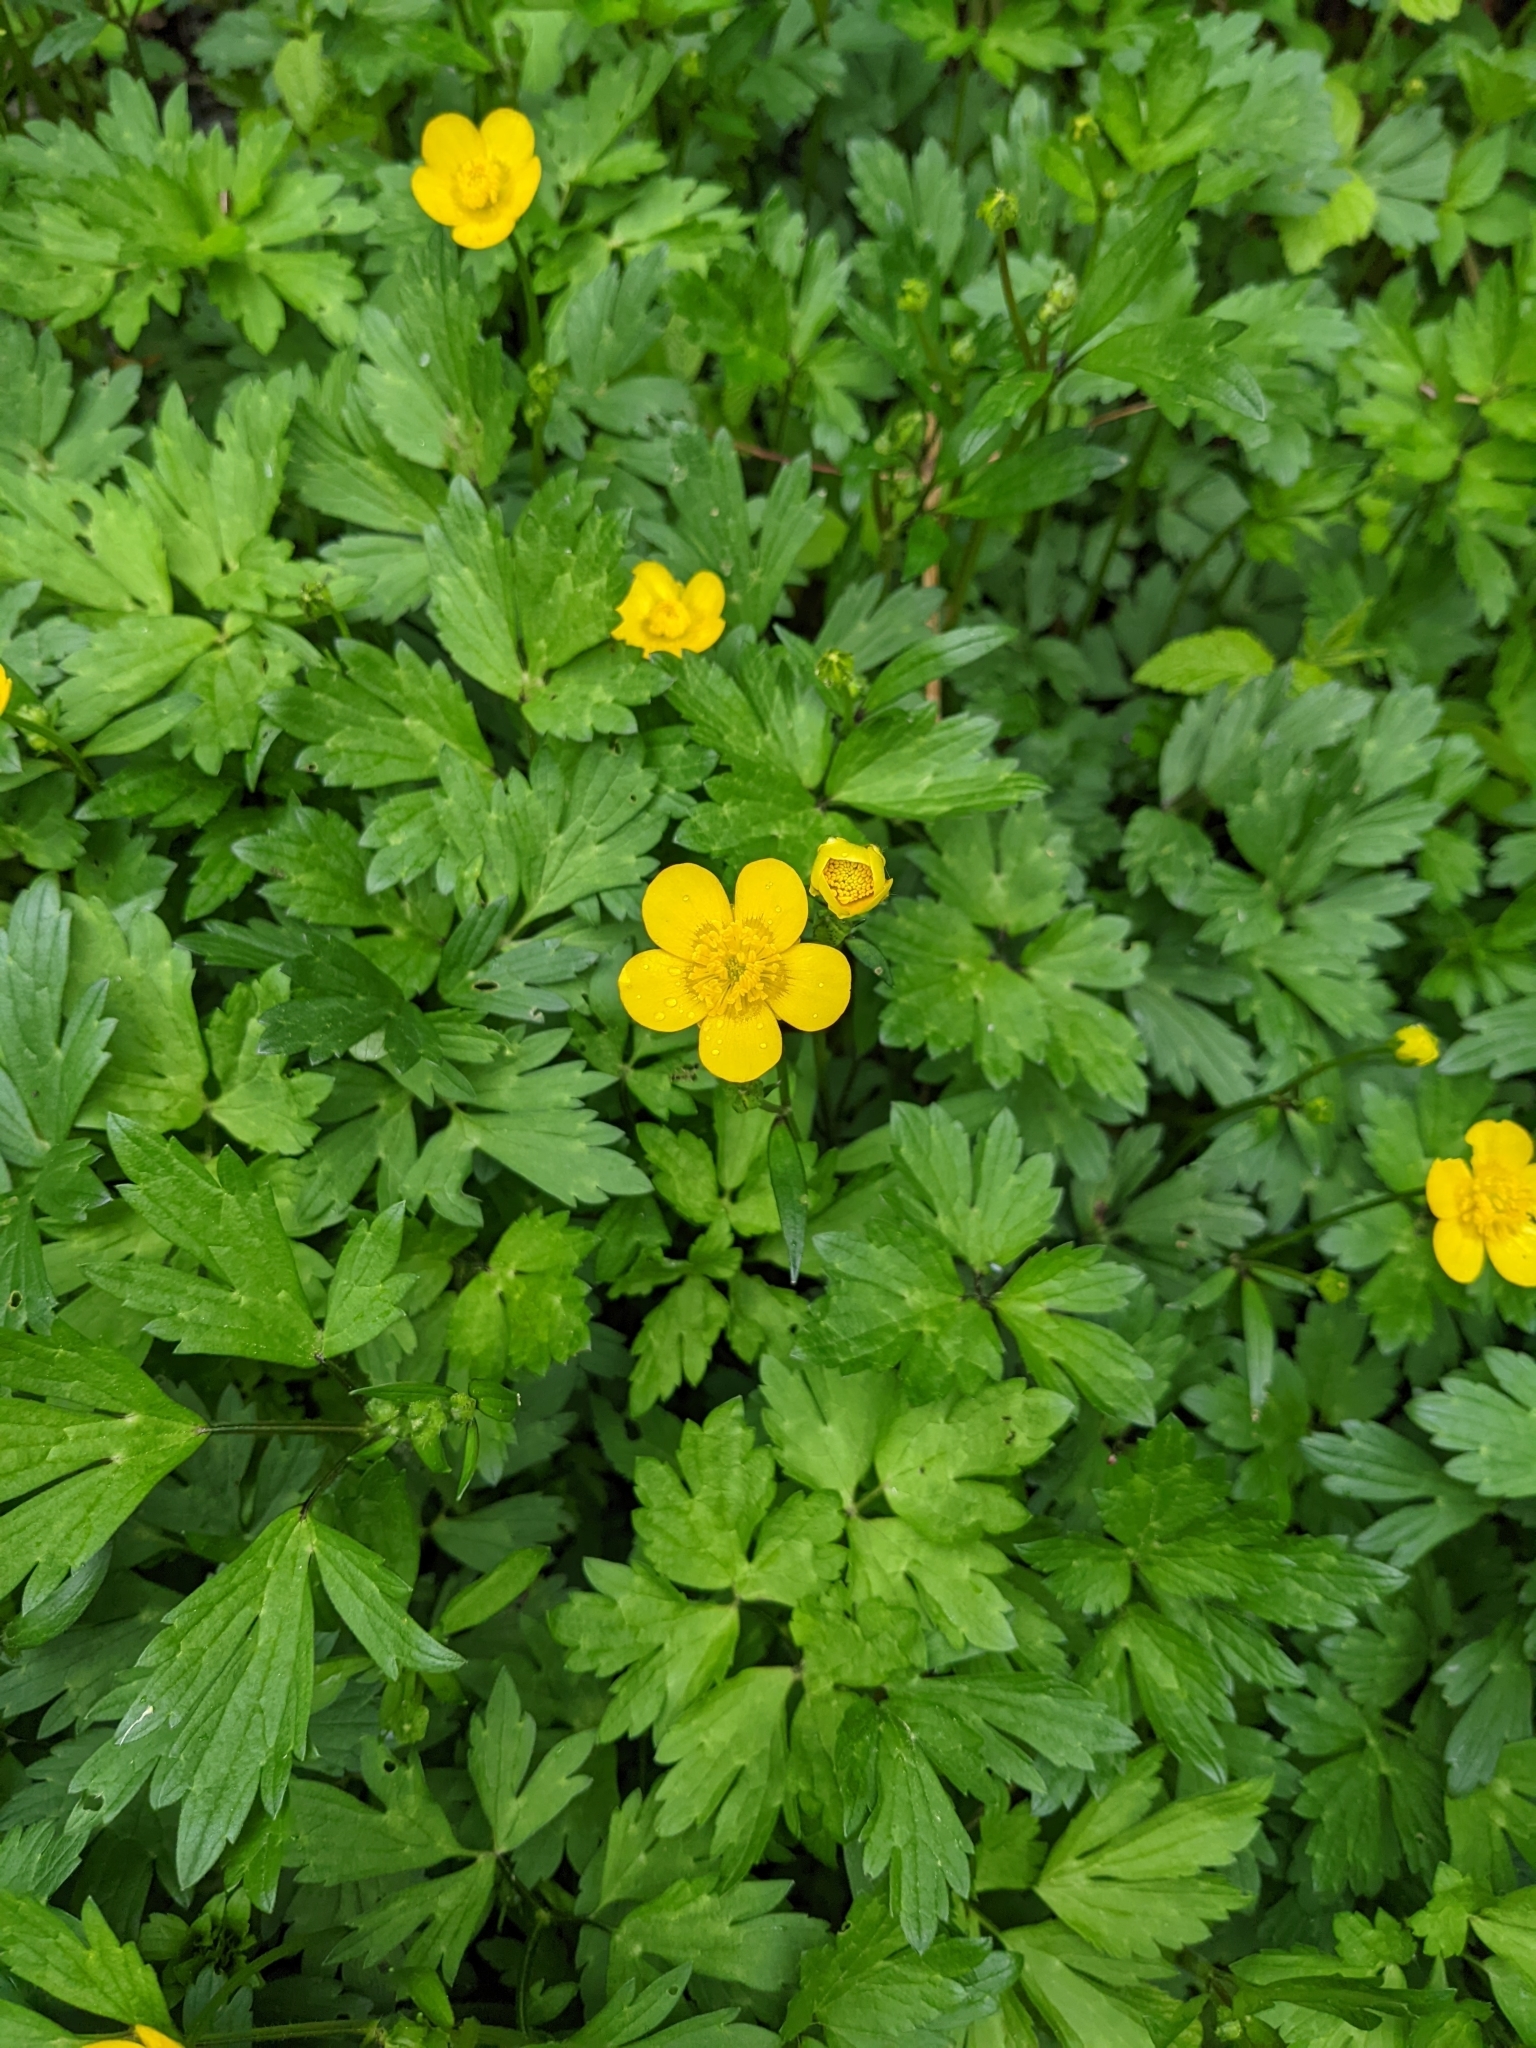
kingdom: Plantae
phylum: Tracheophyta
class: Magnoliopsida
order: Ranunculales
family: Ranunculaceae
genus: Ranunculus
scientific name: Ranunculus repens
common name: Creeping buttercup
